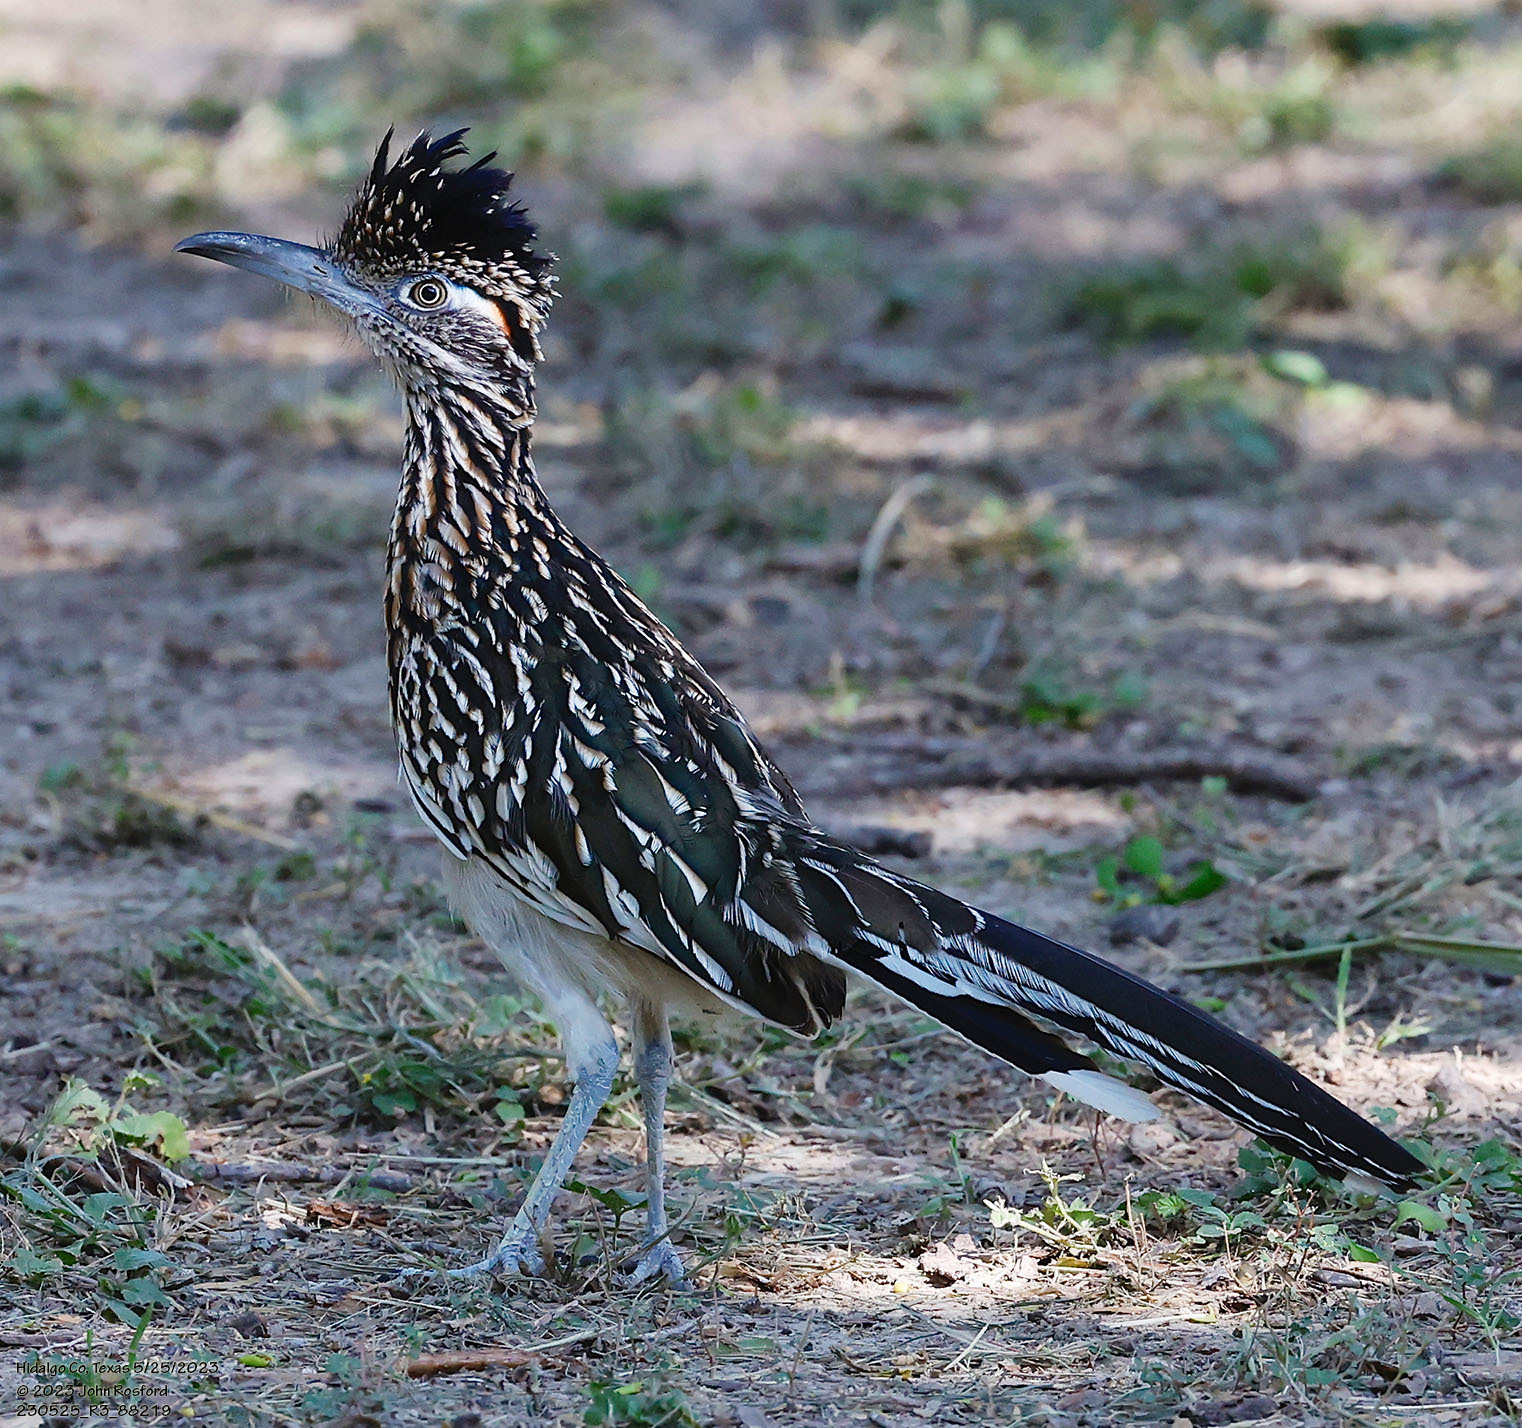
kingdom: Animalia
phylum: Chordata
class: Aves
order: Cuculiformes
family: Cuculidae
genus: Geococcyx
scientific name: Geococcyx californianus
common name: Greater roadrunner
